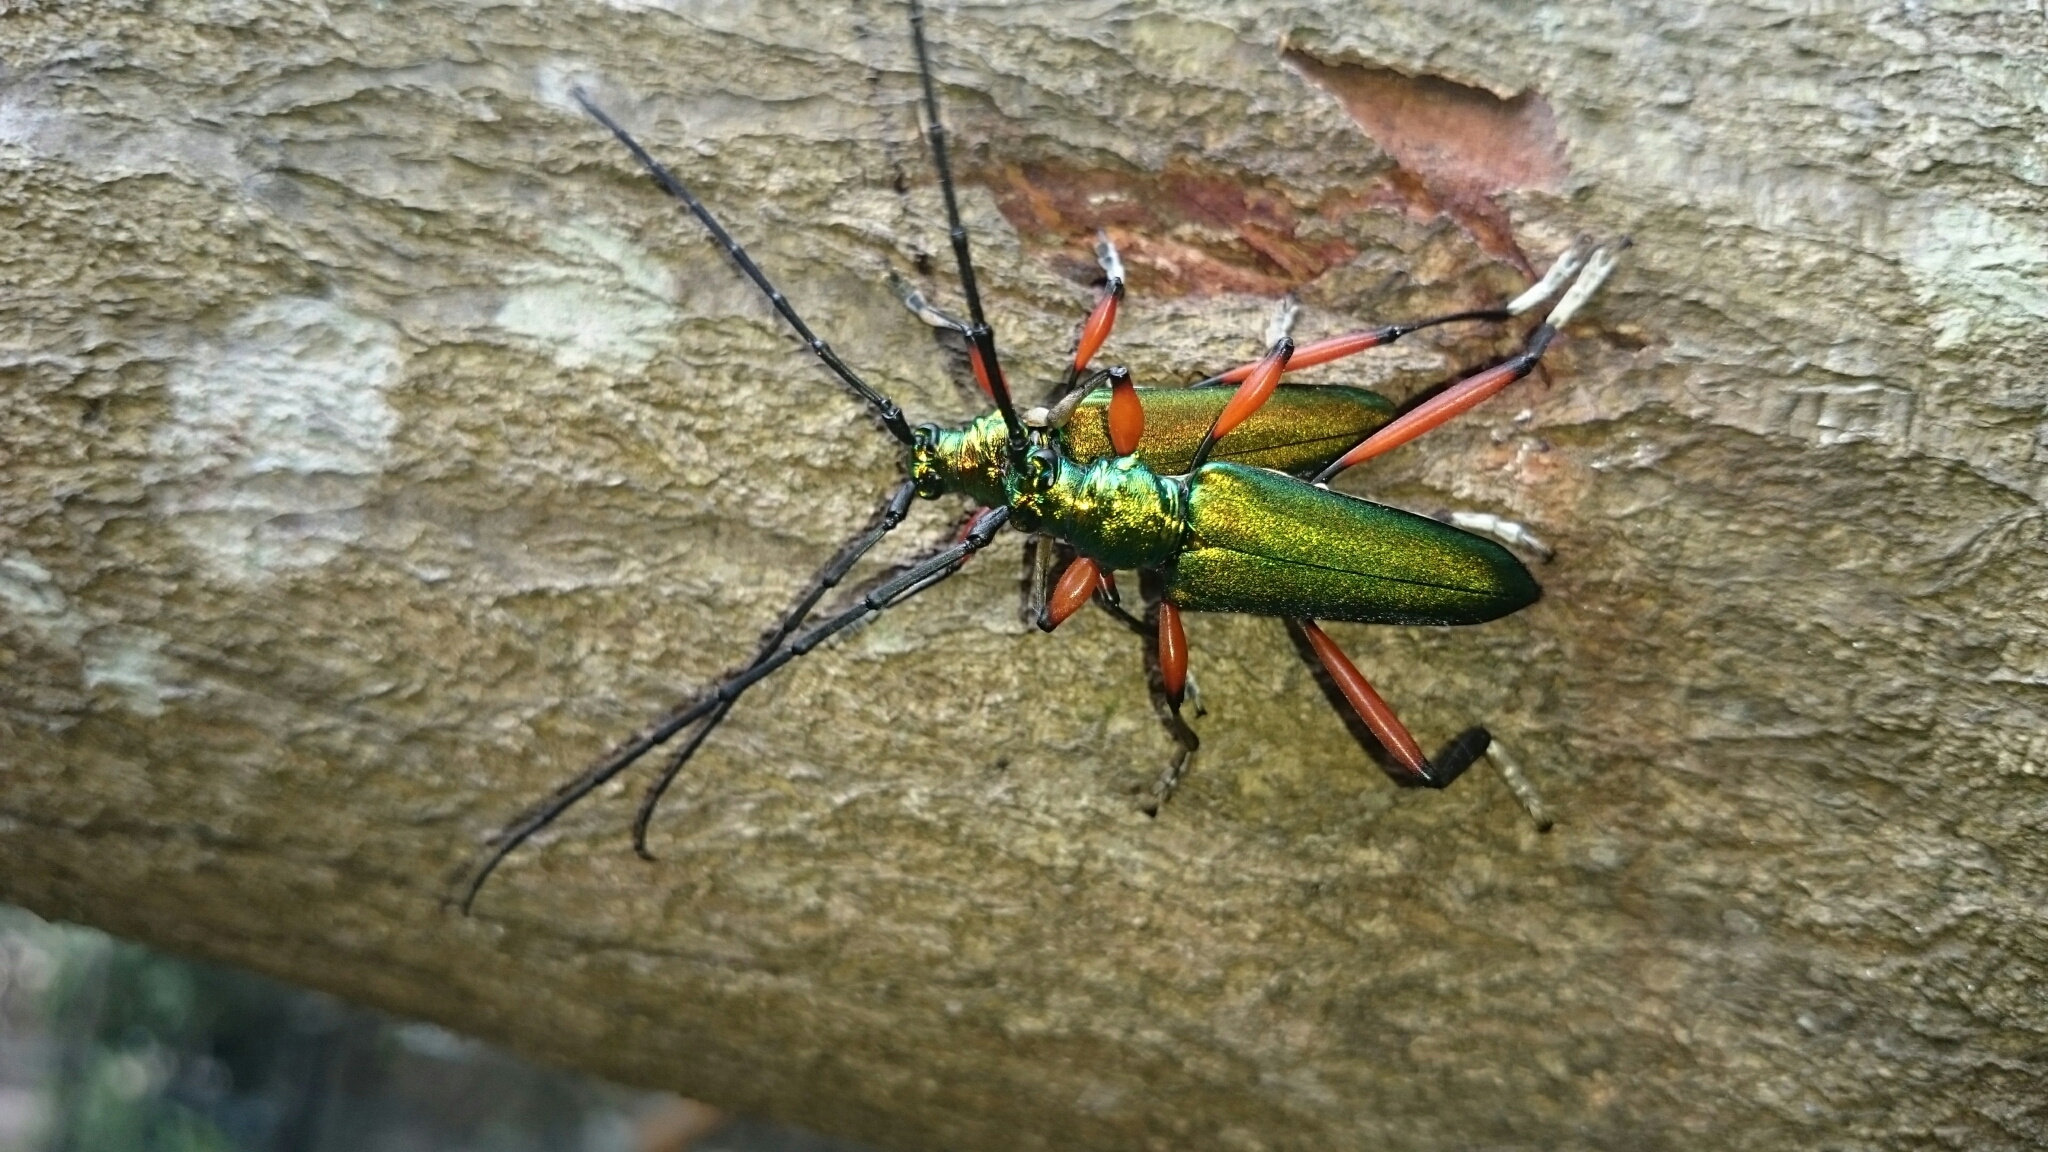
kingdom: Animalia
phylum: Arthropoda
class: Insecta
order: Coleoptera
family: Cerambycidae
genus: Philematium
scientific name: Philematium virens
